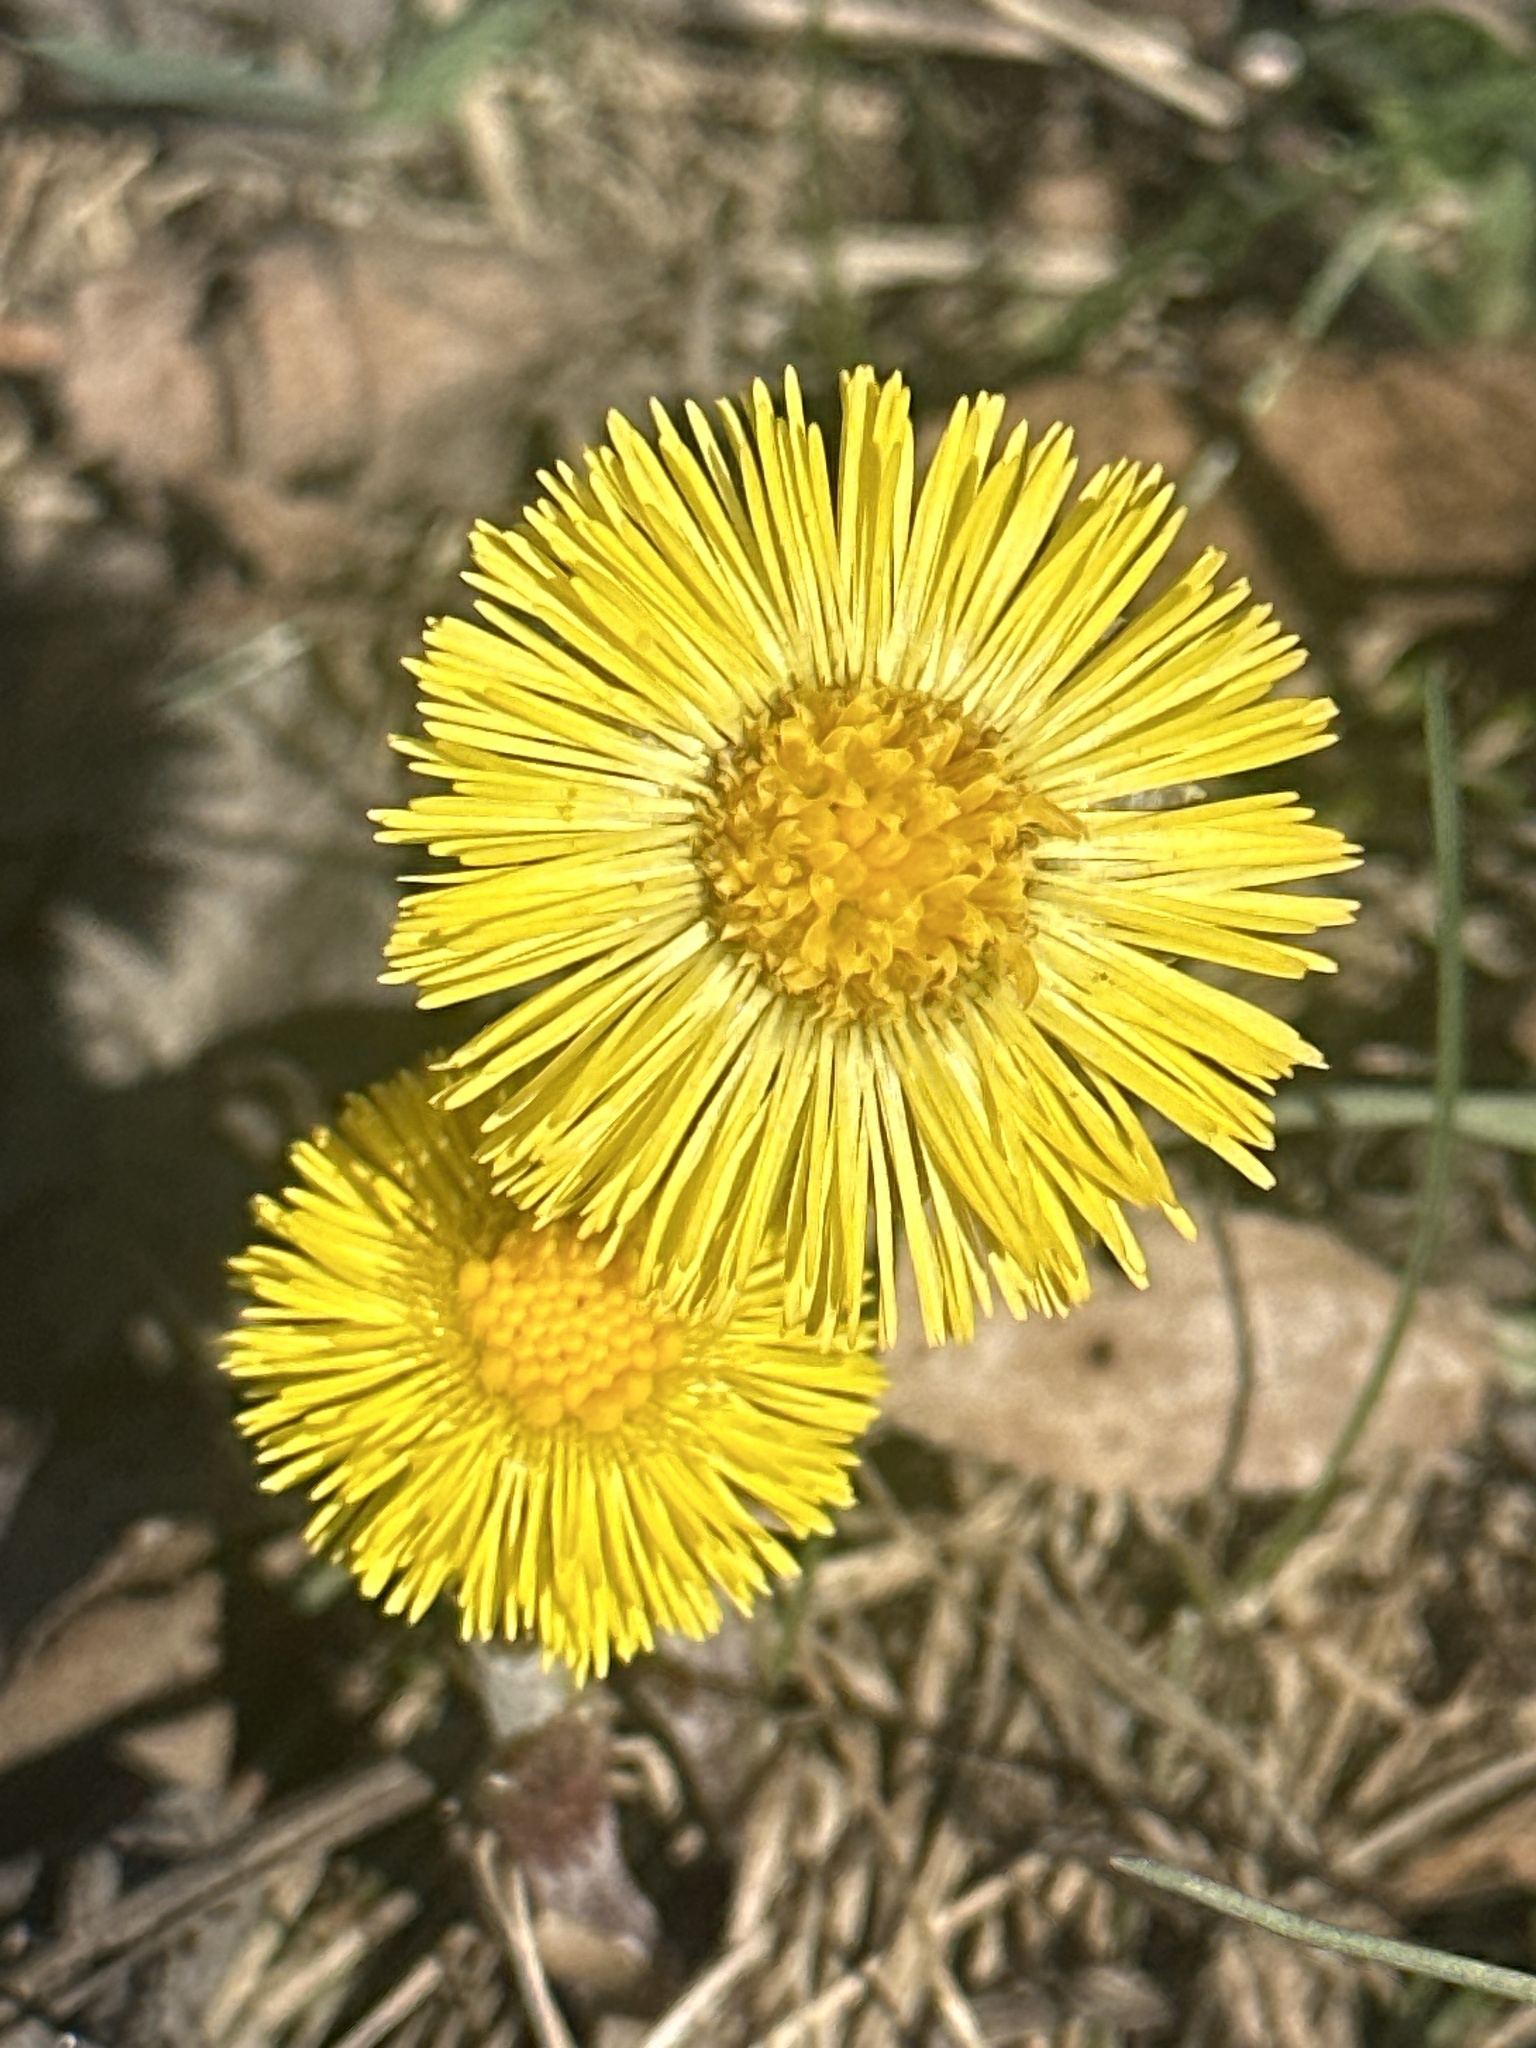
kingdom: Plantae
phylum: Tracheophyta
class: Magnoliopsida
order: Asterales
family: Asteraceae
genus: Tussilago
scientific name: Tussilago farfara
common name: Coltsfoot
